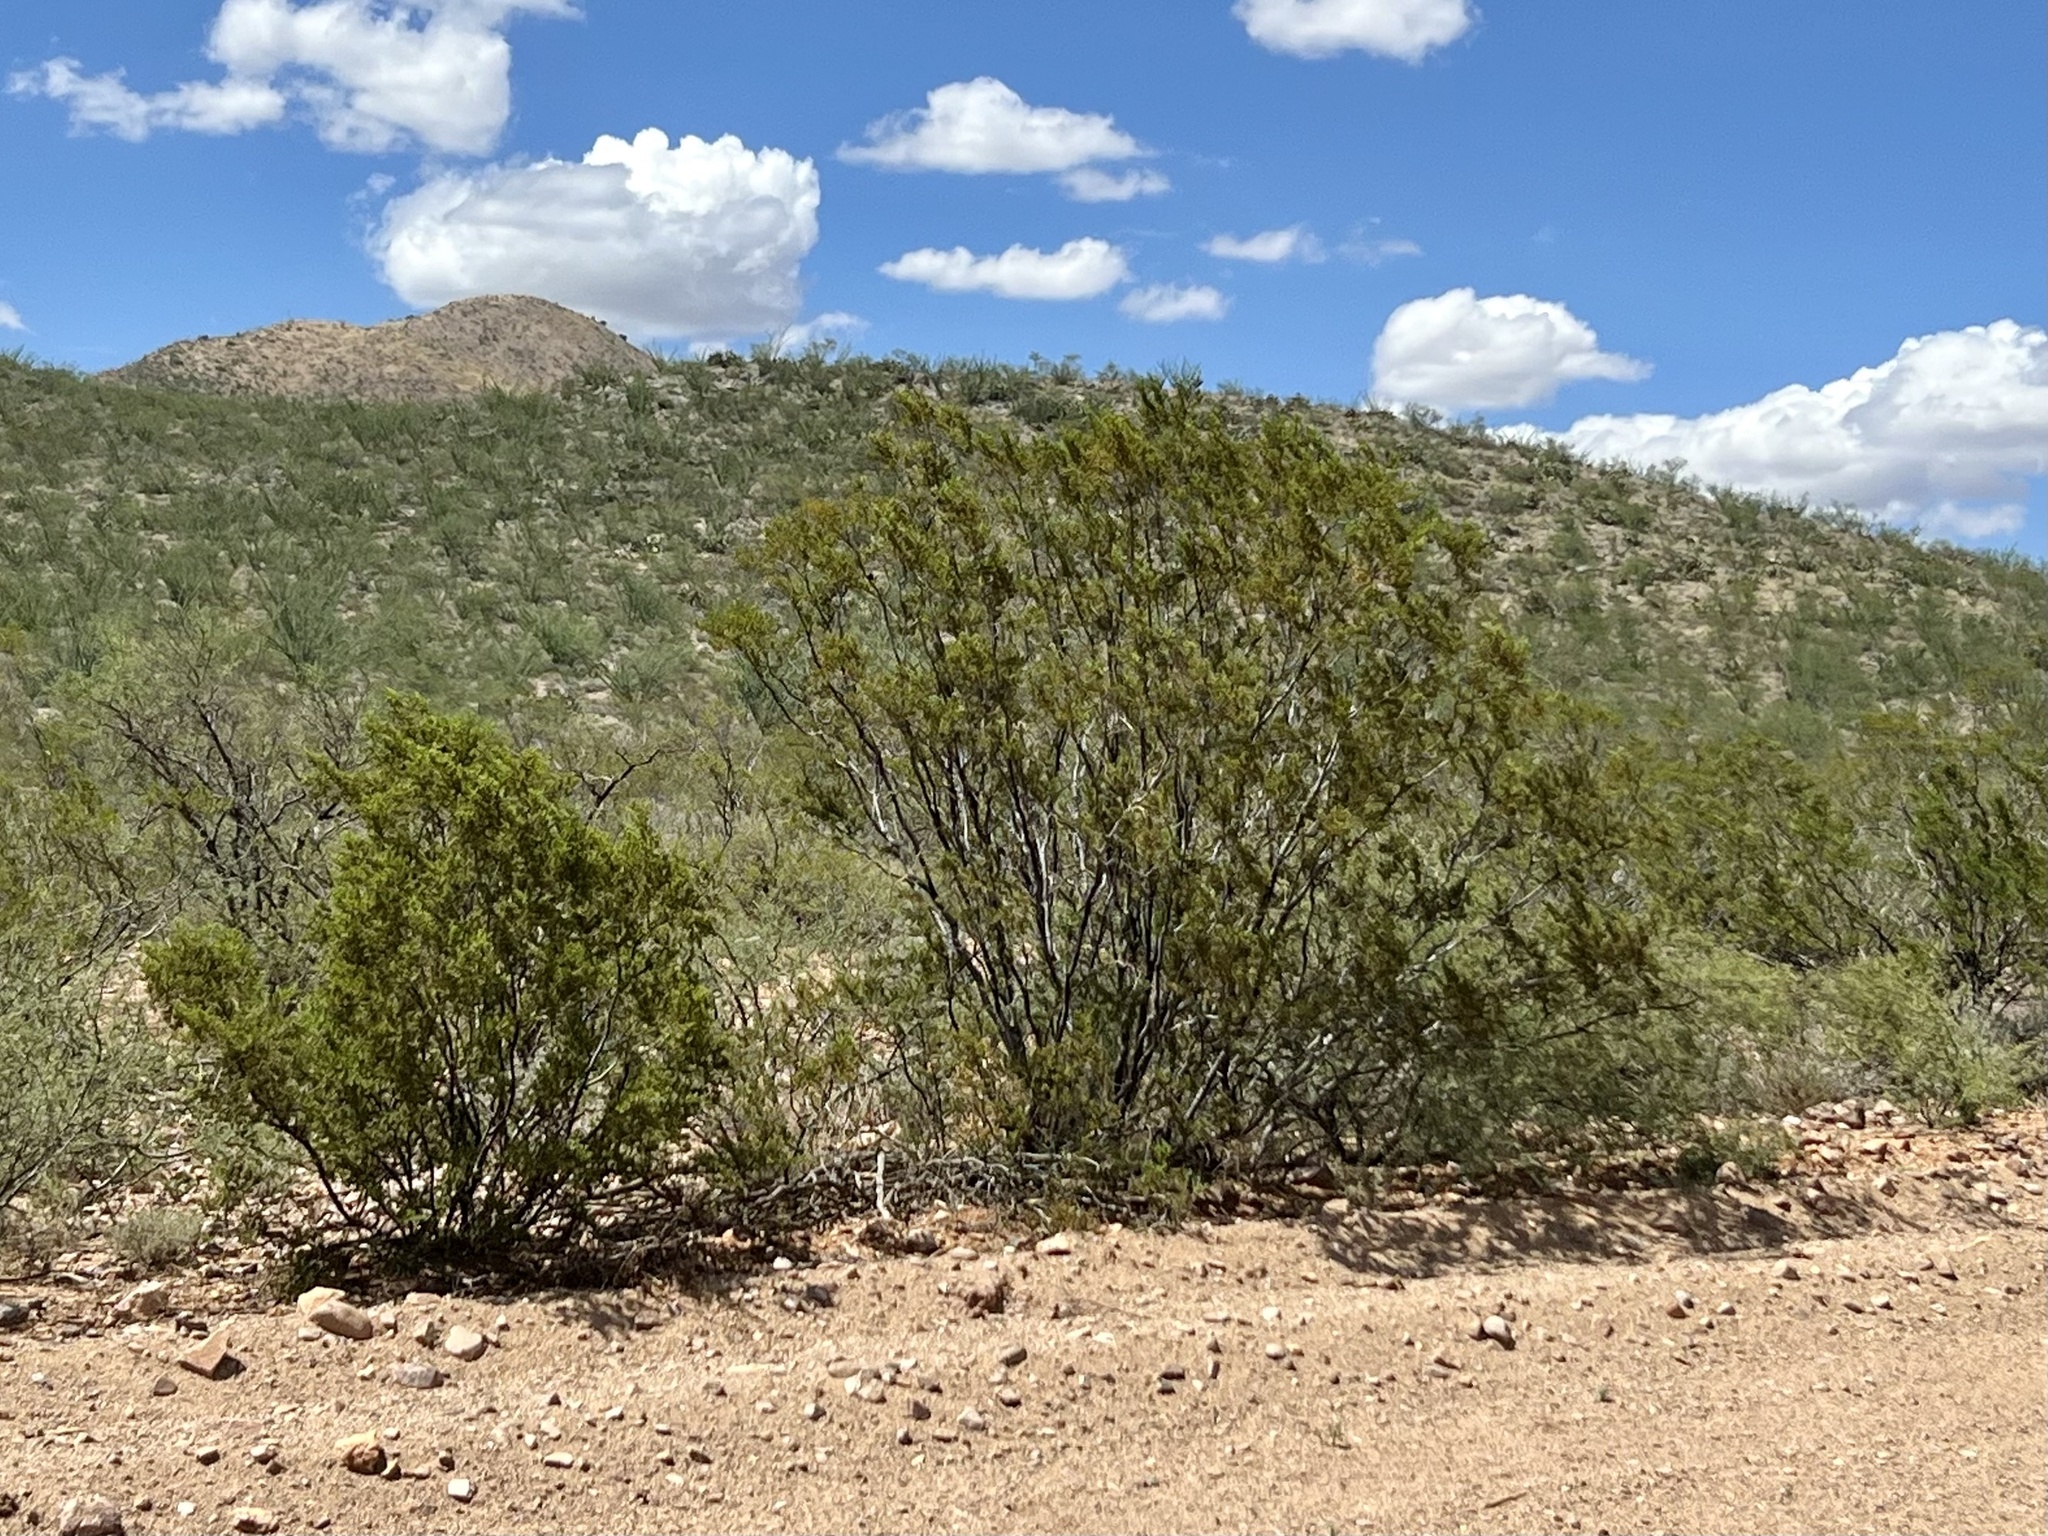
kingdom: Plantae
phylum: Tracheophyta
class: Magnoliopsida
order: Zygophyllales
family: Zygophyllaceae
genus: Larrea
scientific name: Larrea tridentata
